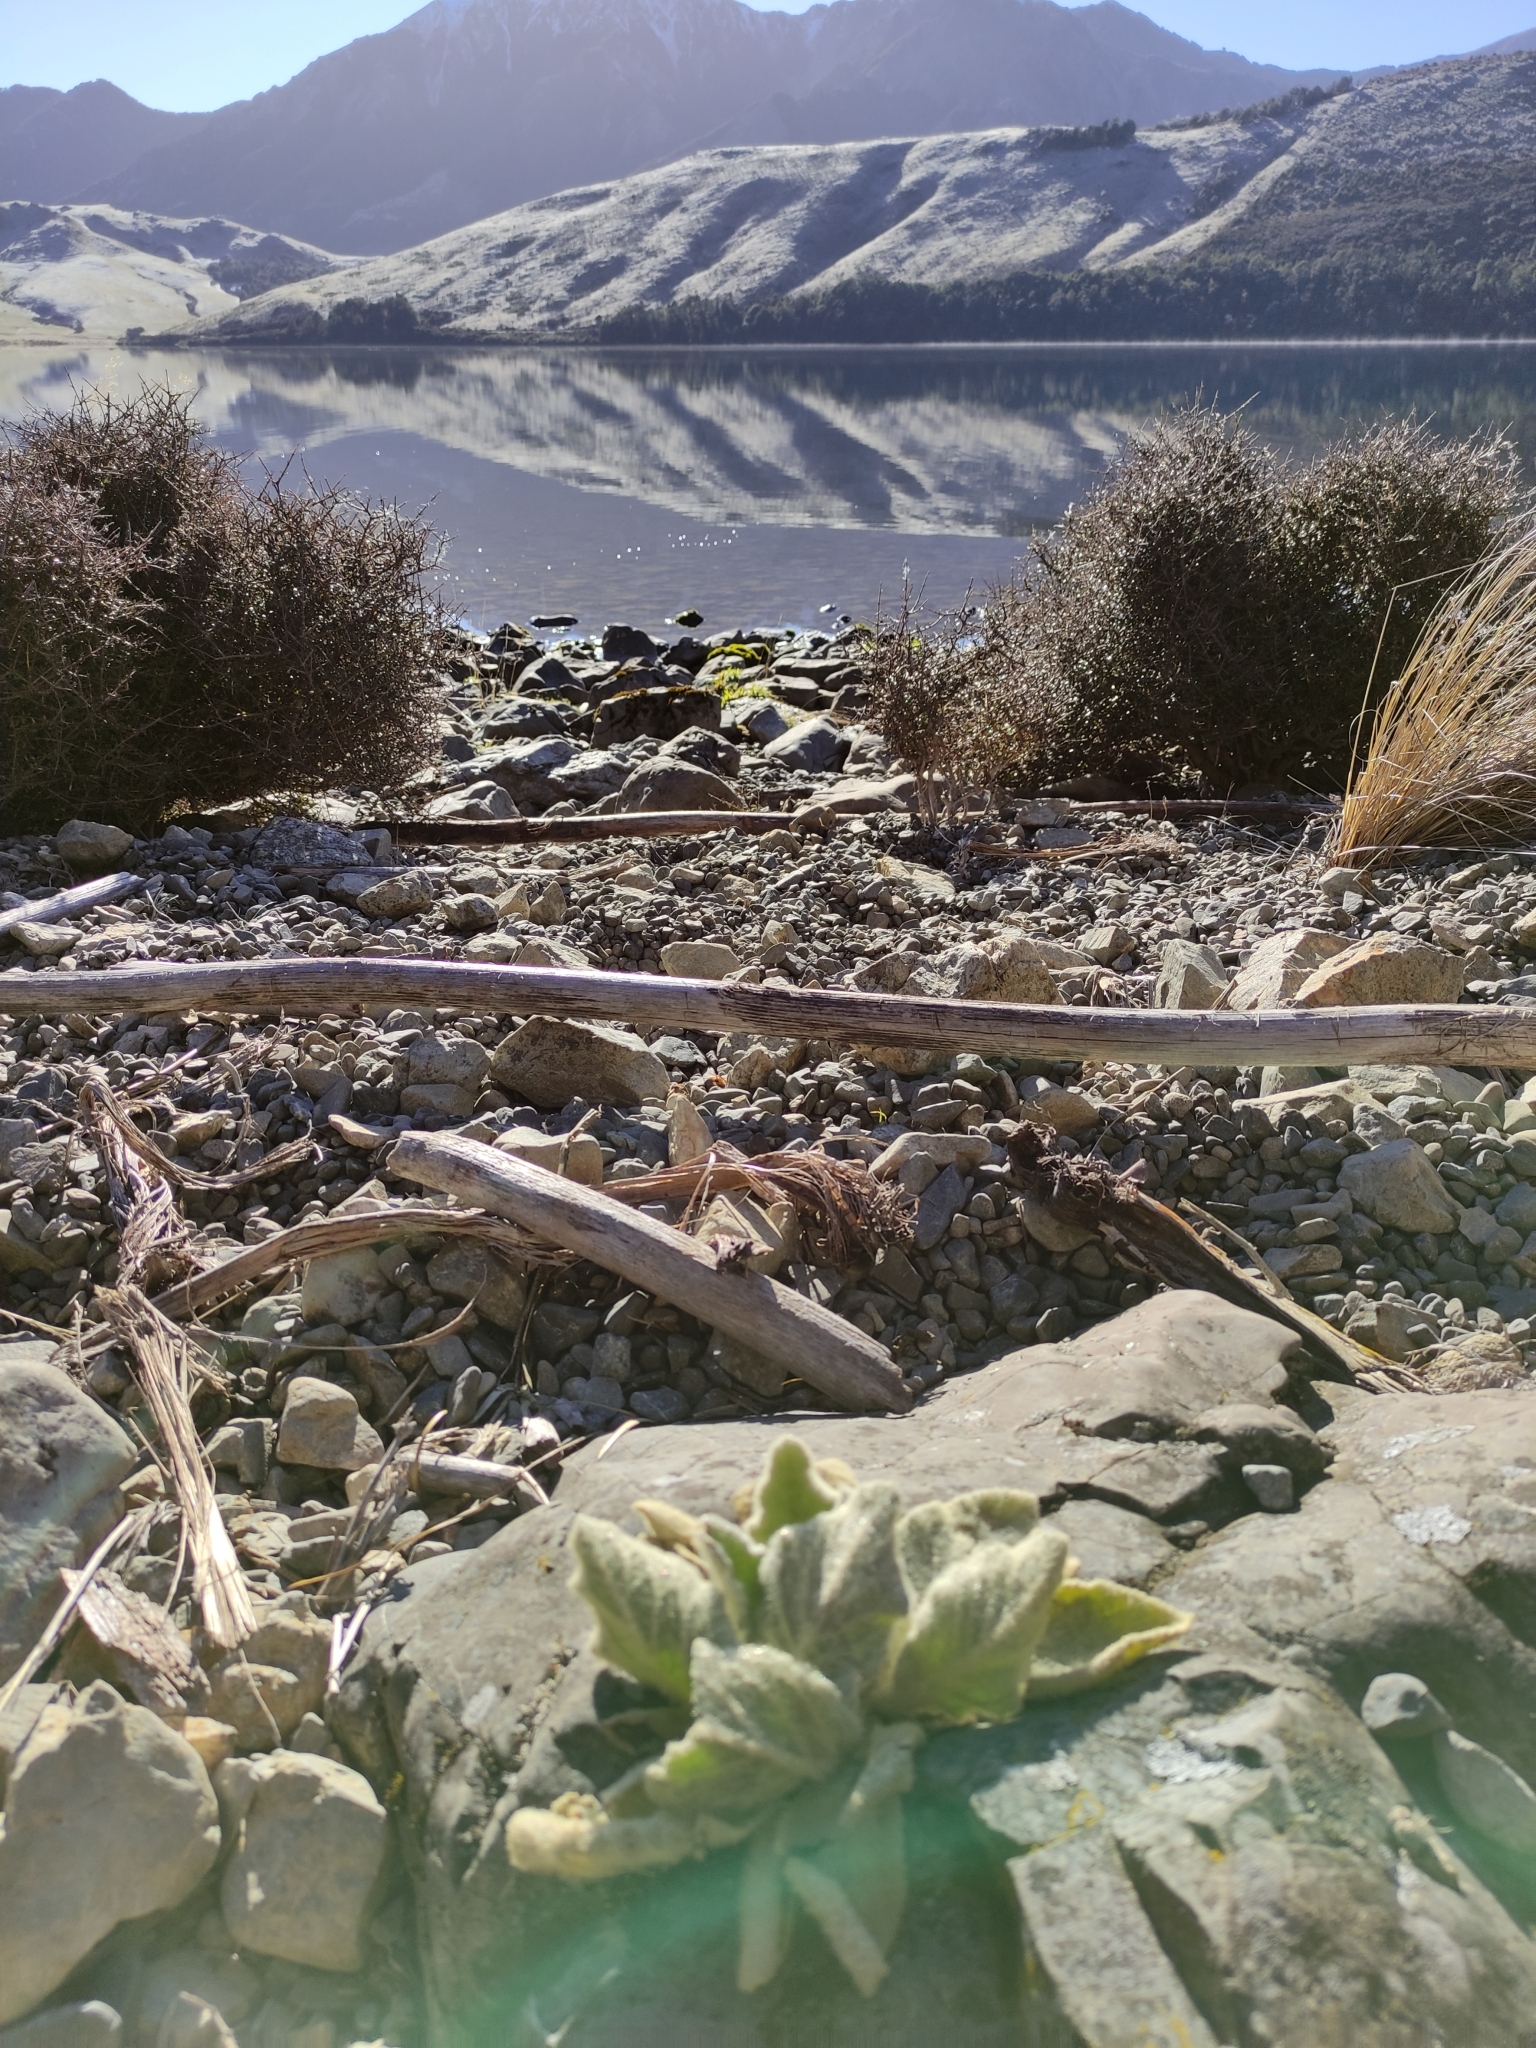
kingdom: Plantae
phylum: Tracheophyta
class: Magnoliopsida
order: Lamiales
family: Scrophulariaceae
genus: Verbascum
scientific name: Verbascum thapsus
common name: Common mullein
